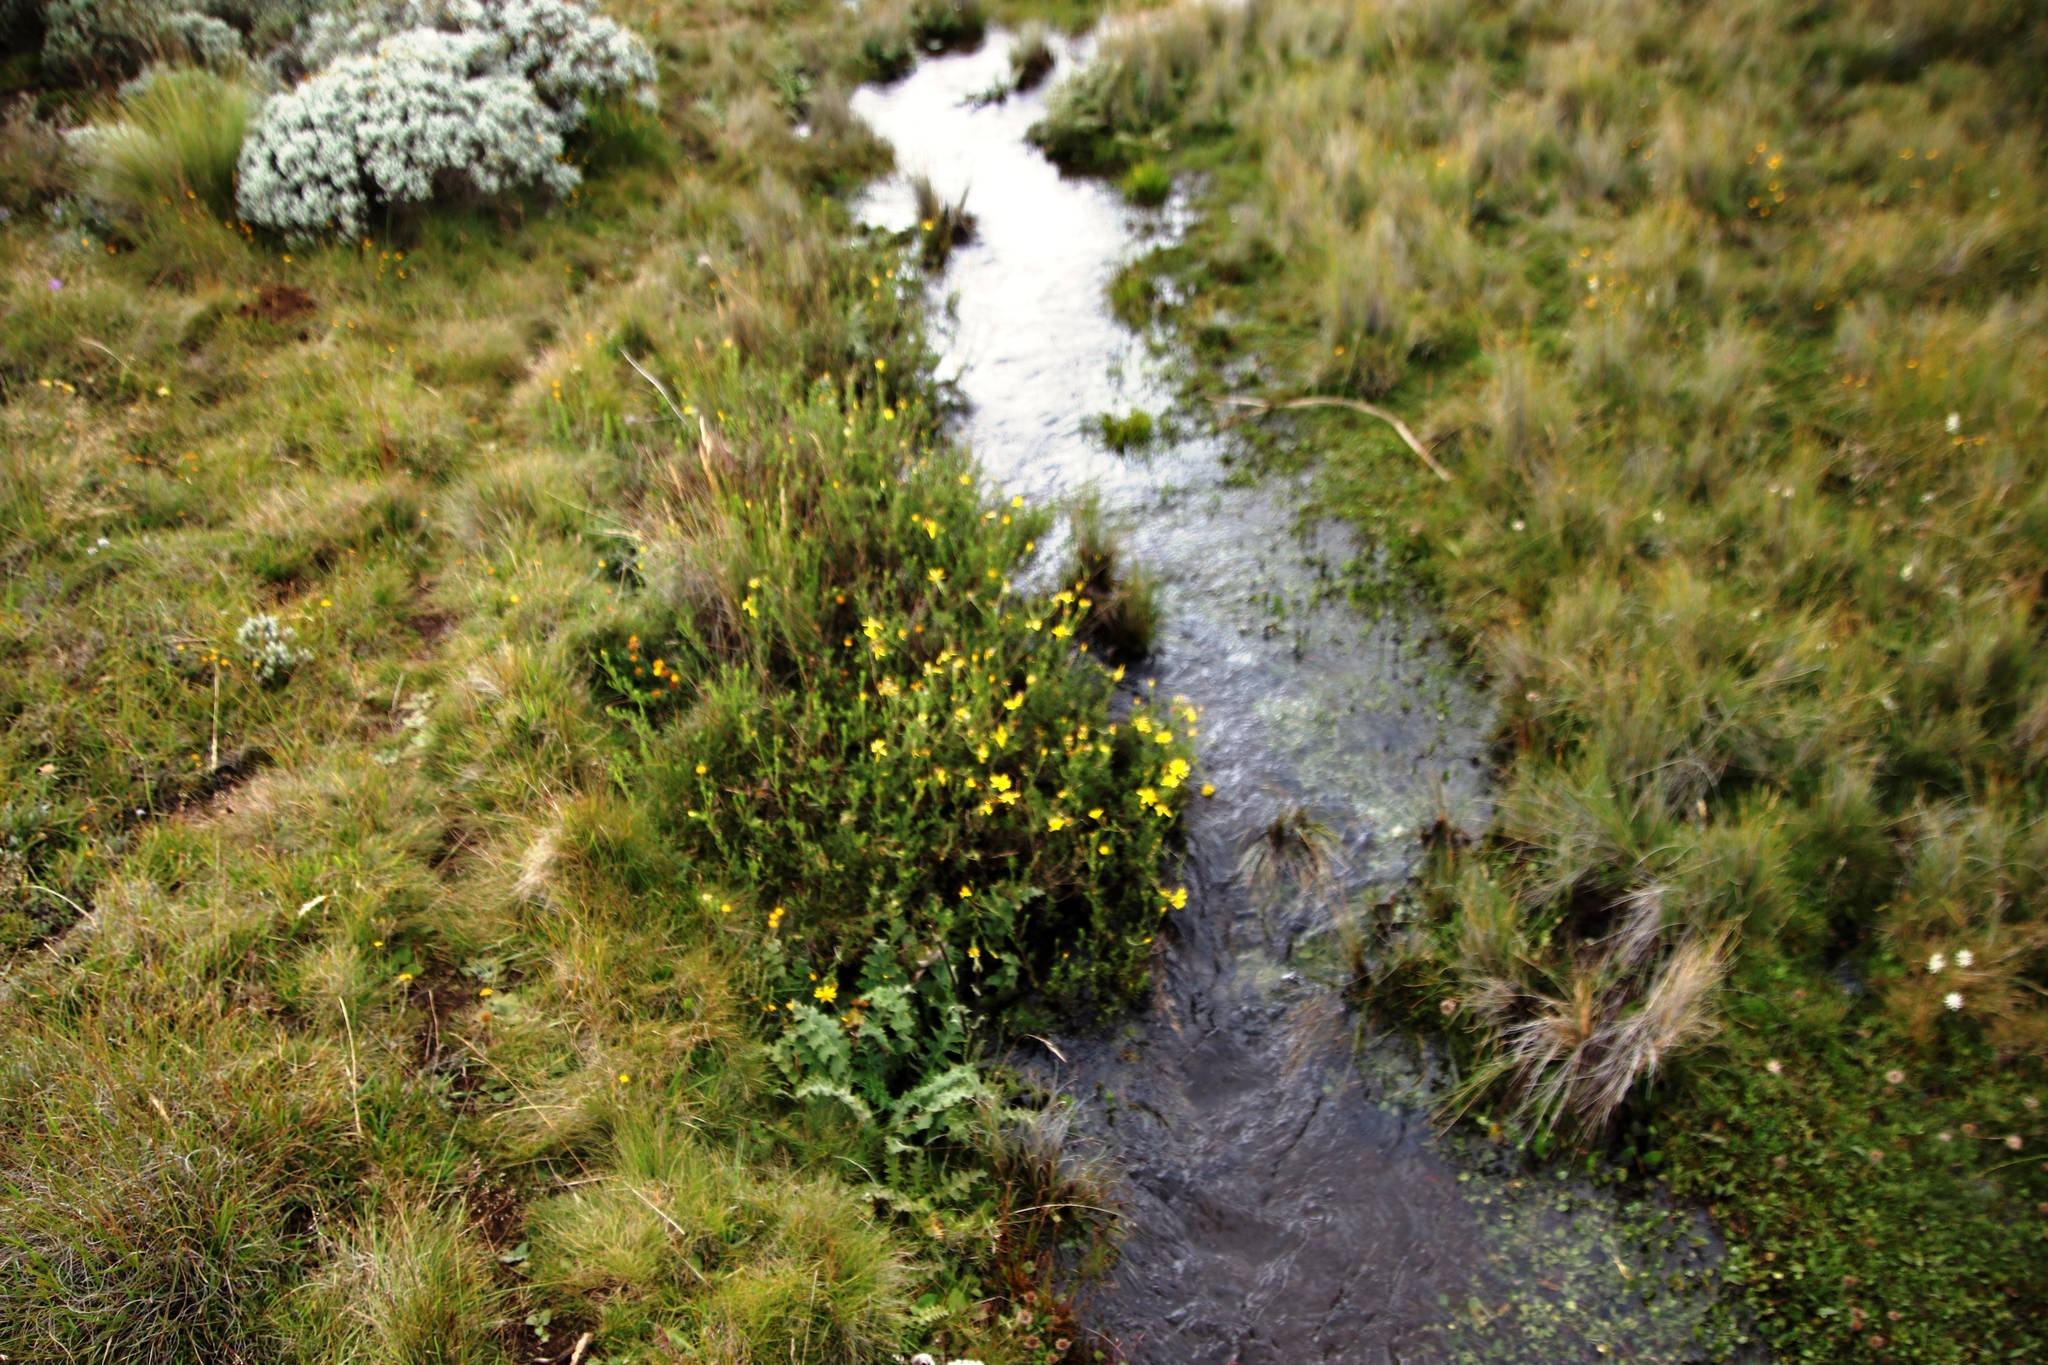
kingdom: Plantae
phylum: Tracheophyta
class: Magnoliopsida
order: Asterales
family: Asteraceae
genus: Senecio
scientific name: Senecio seminiveus
